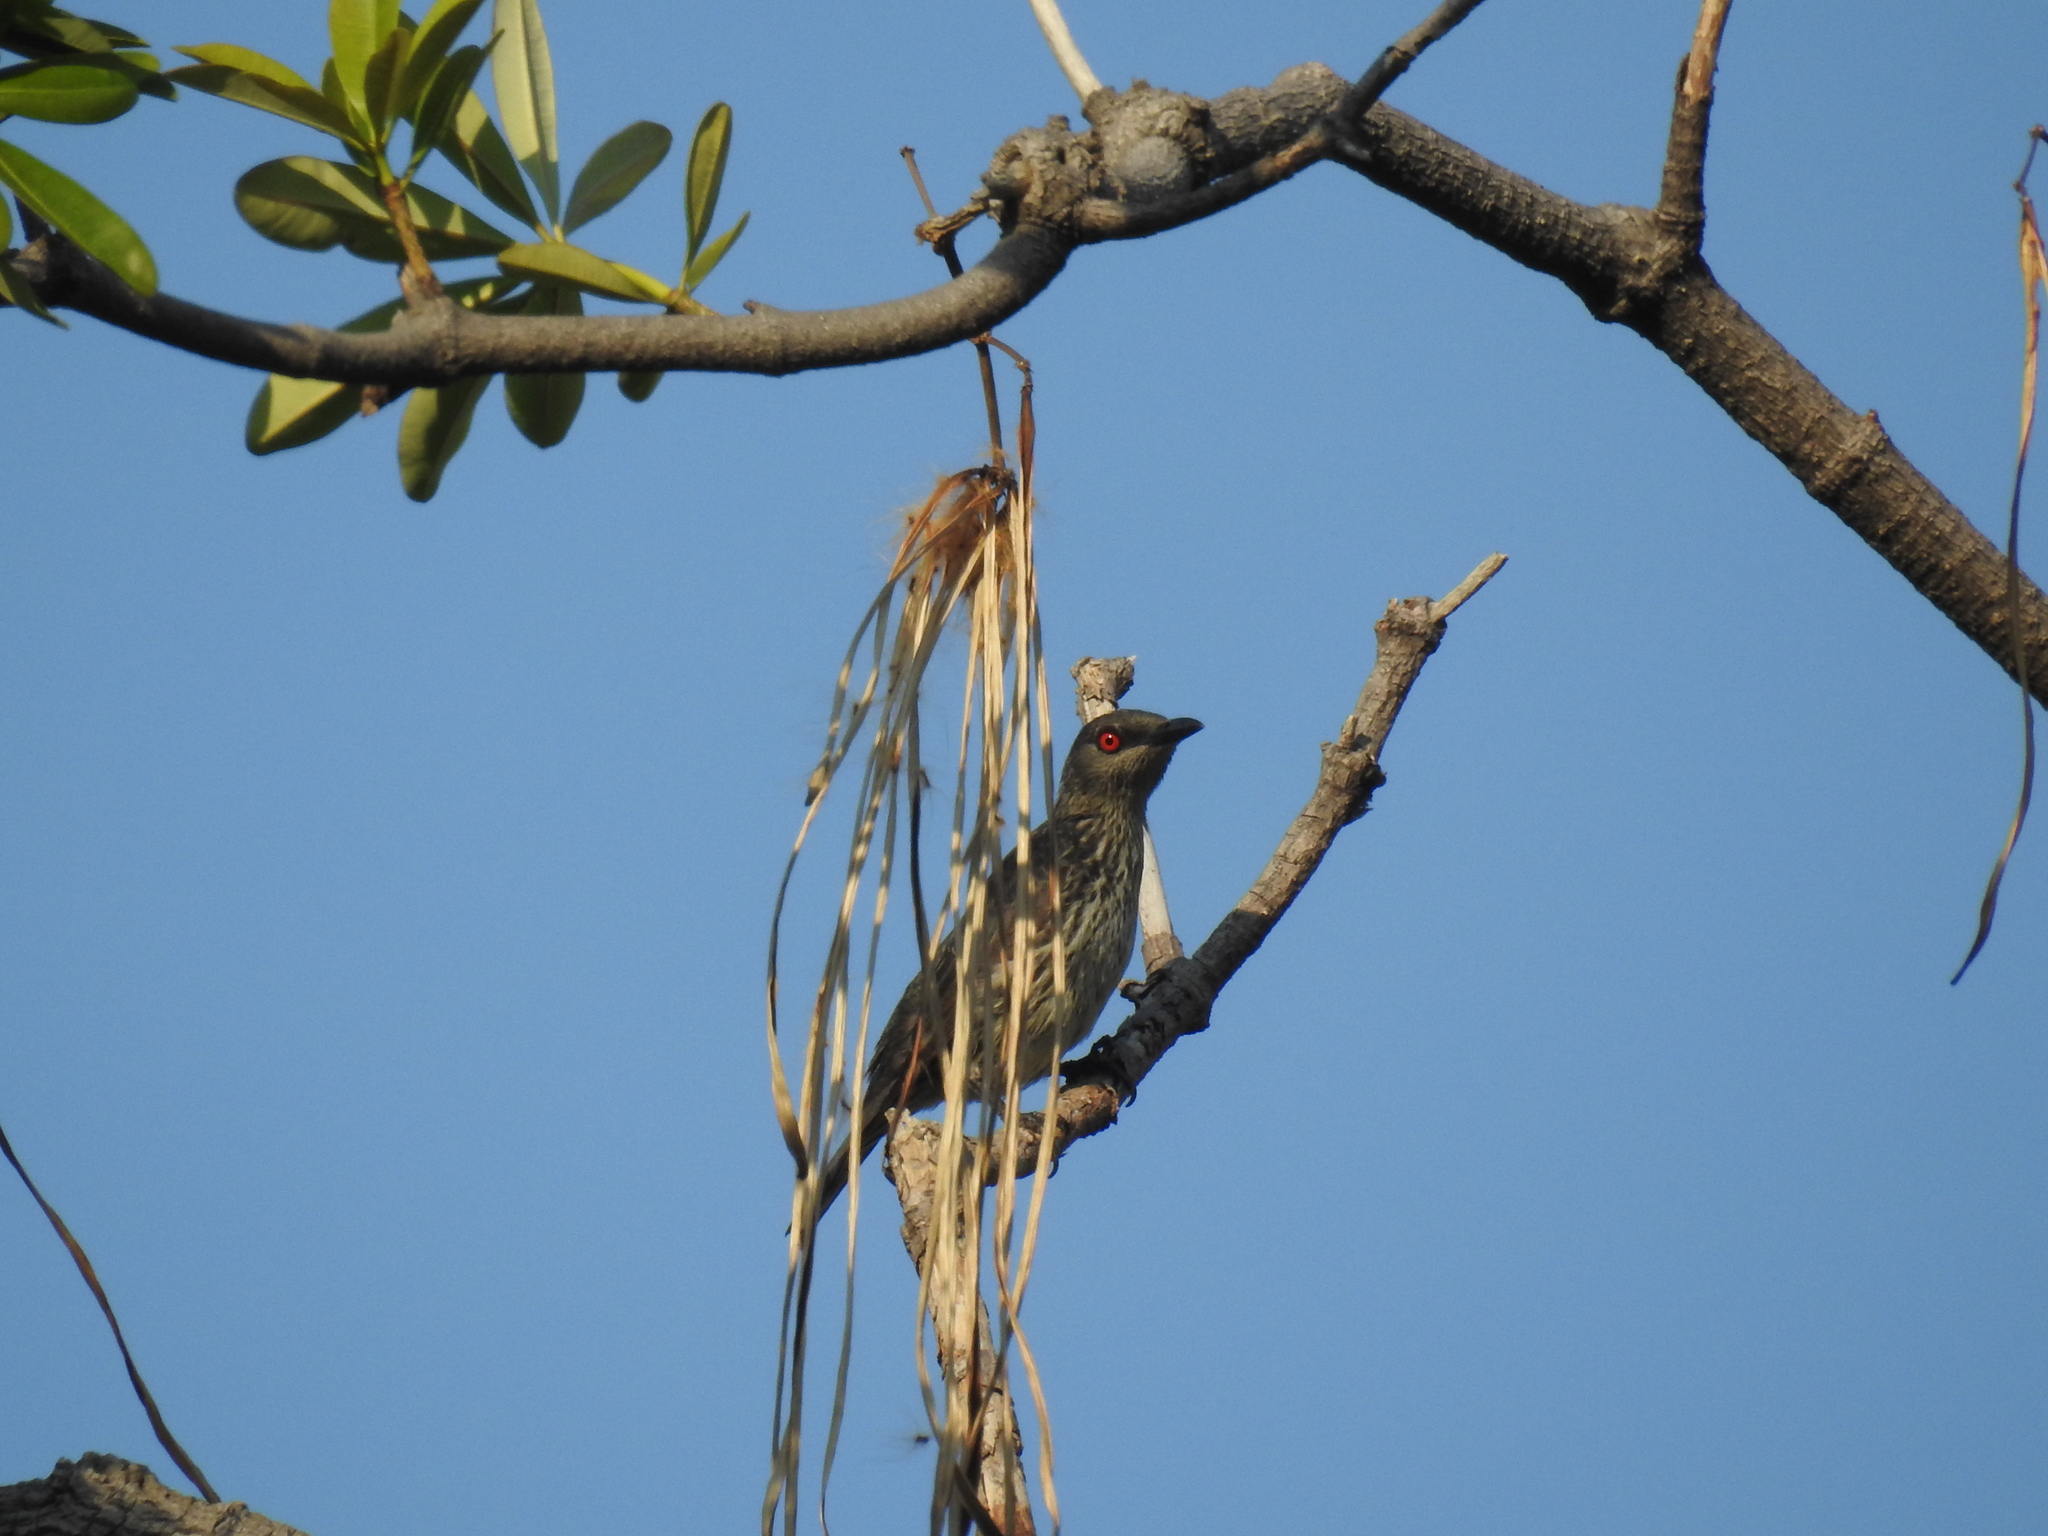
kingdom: Animalia
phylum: Chordata
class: Aves
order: Passeriformes
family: Sturnidae
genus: Aplonis
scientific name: Aplonis panayensis
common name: Asian glossy starling
